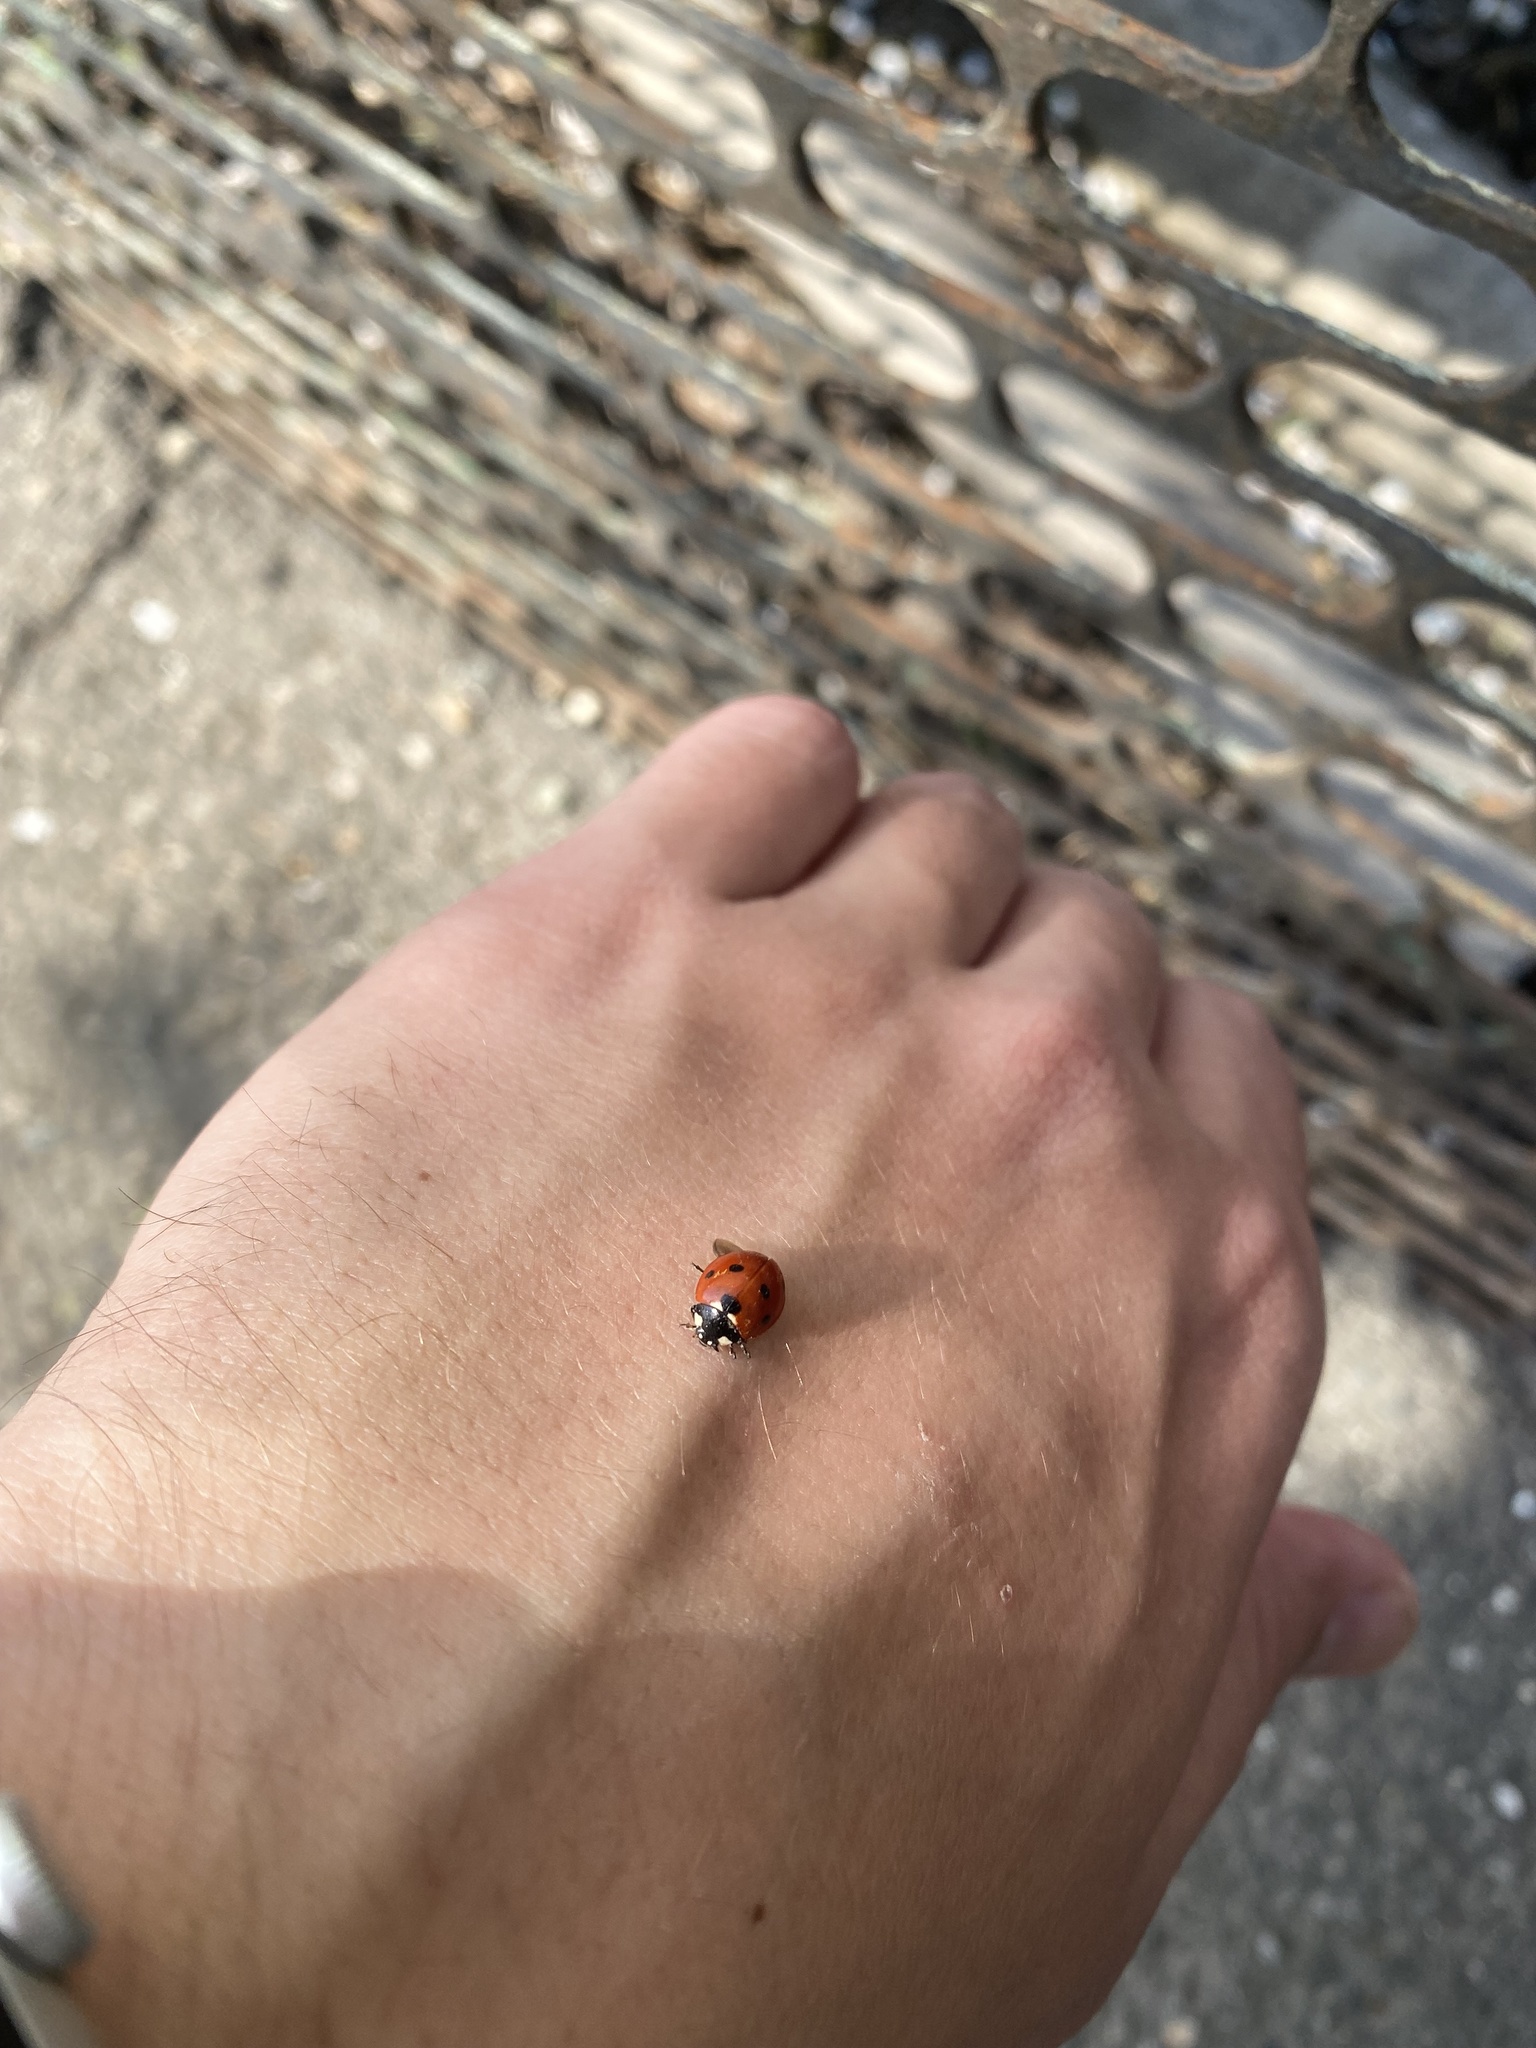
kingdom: Animalia
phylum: Arthropoda
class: Insecta
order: Coleoptera
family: Coccinellidae
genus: Coccinella
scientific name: Coccinella septempunctata
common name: Sevenspotted lady beetle
